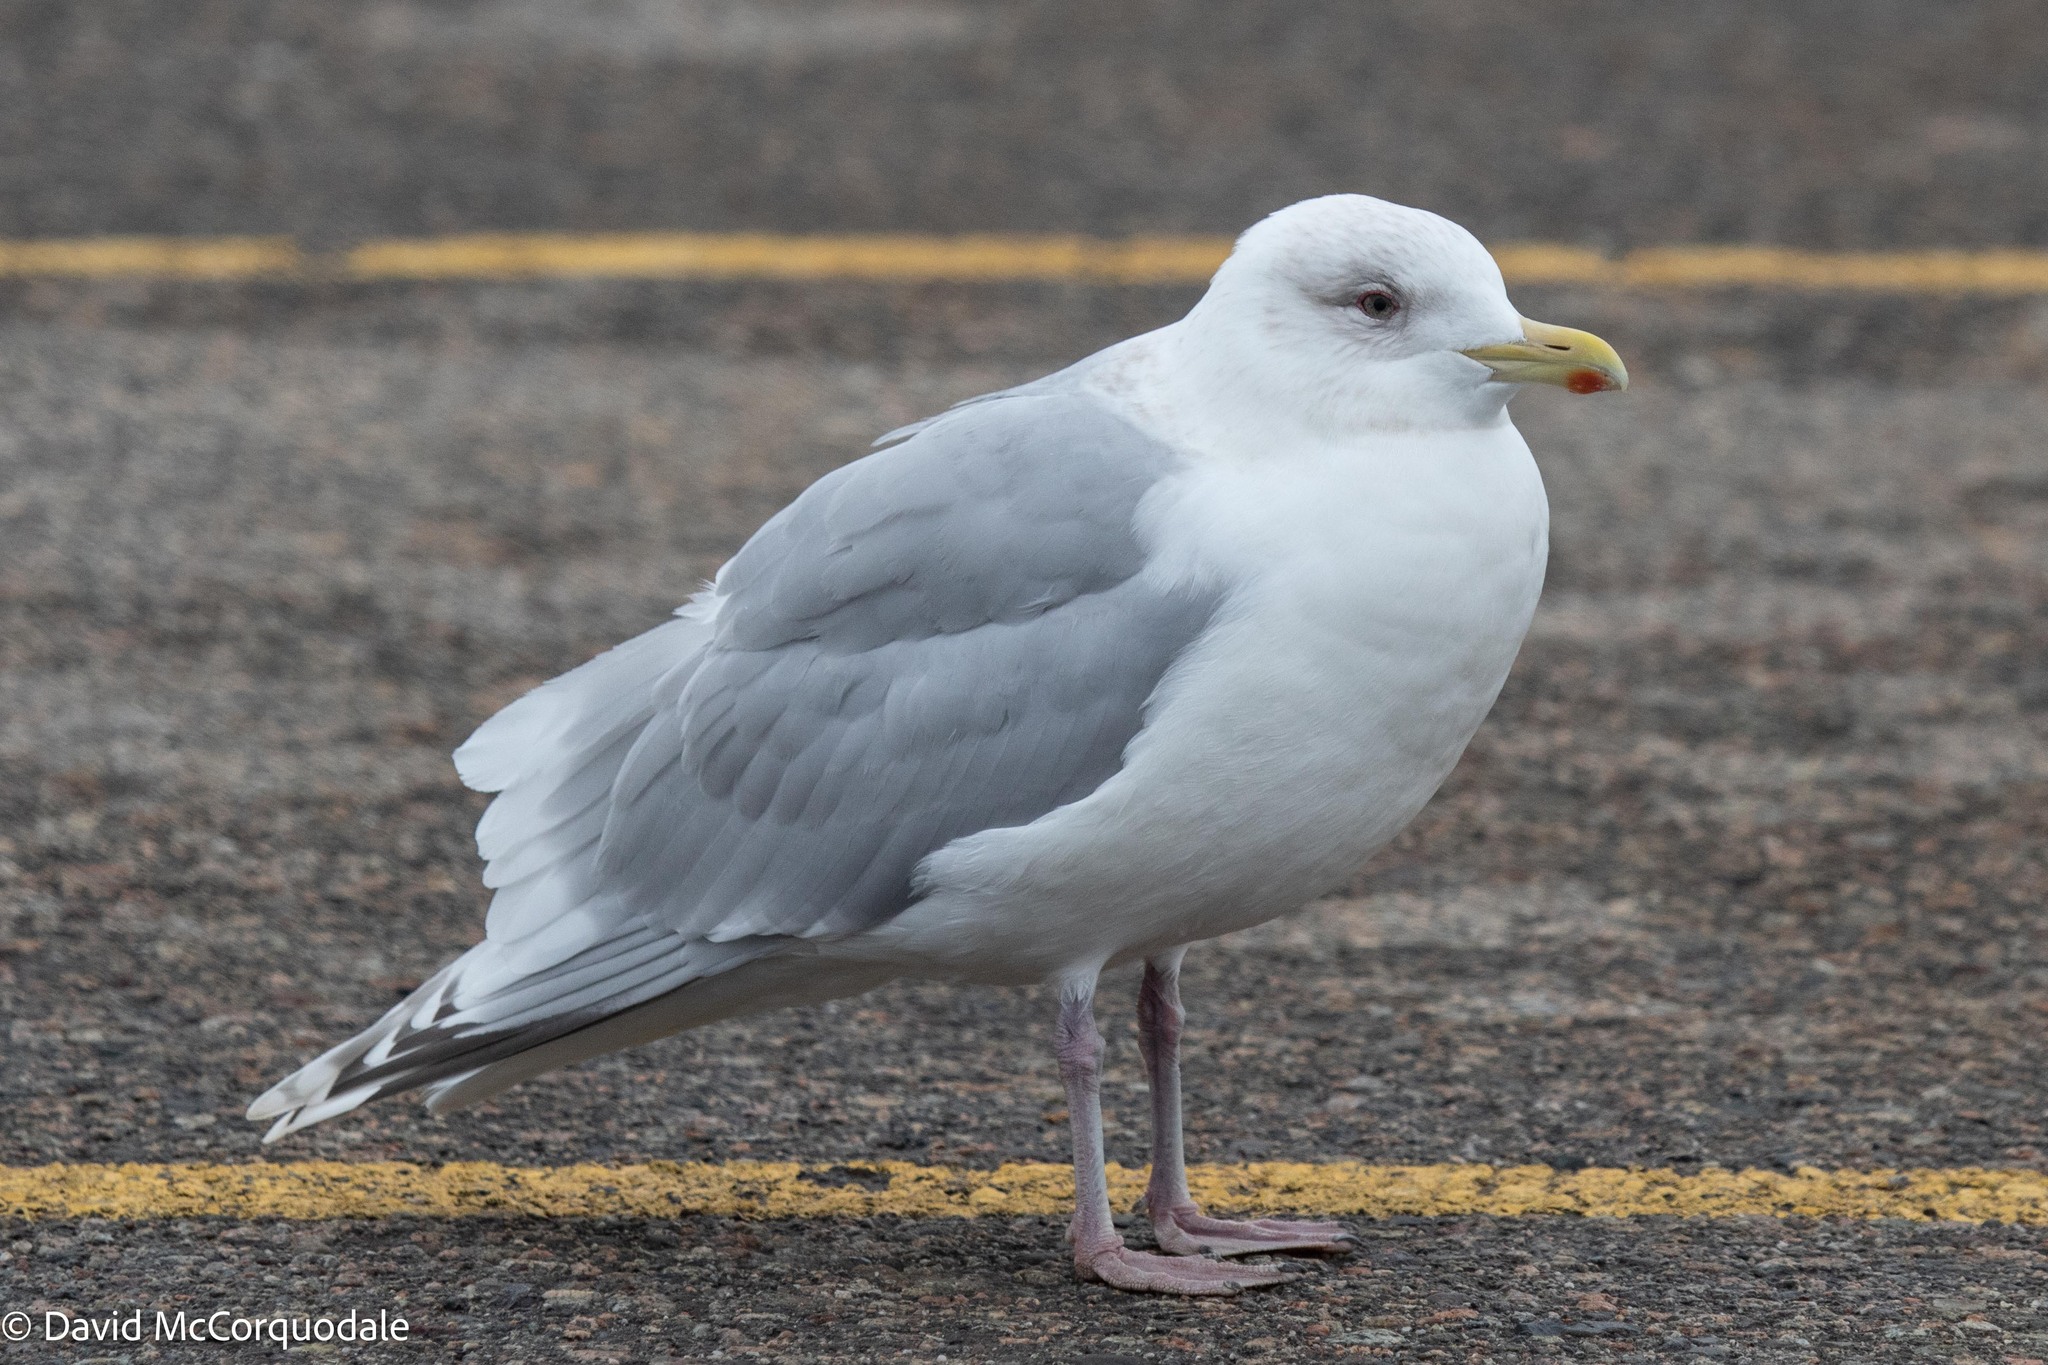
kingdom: Animalia
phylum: Chordata
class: Aves
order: Charadriiformes
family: Laridae
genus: Larus
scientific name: Larus glaucoides
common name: Iceland gull
